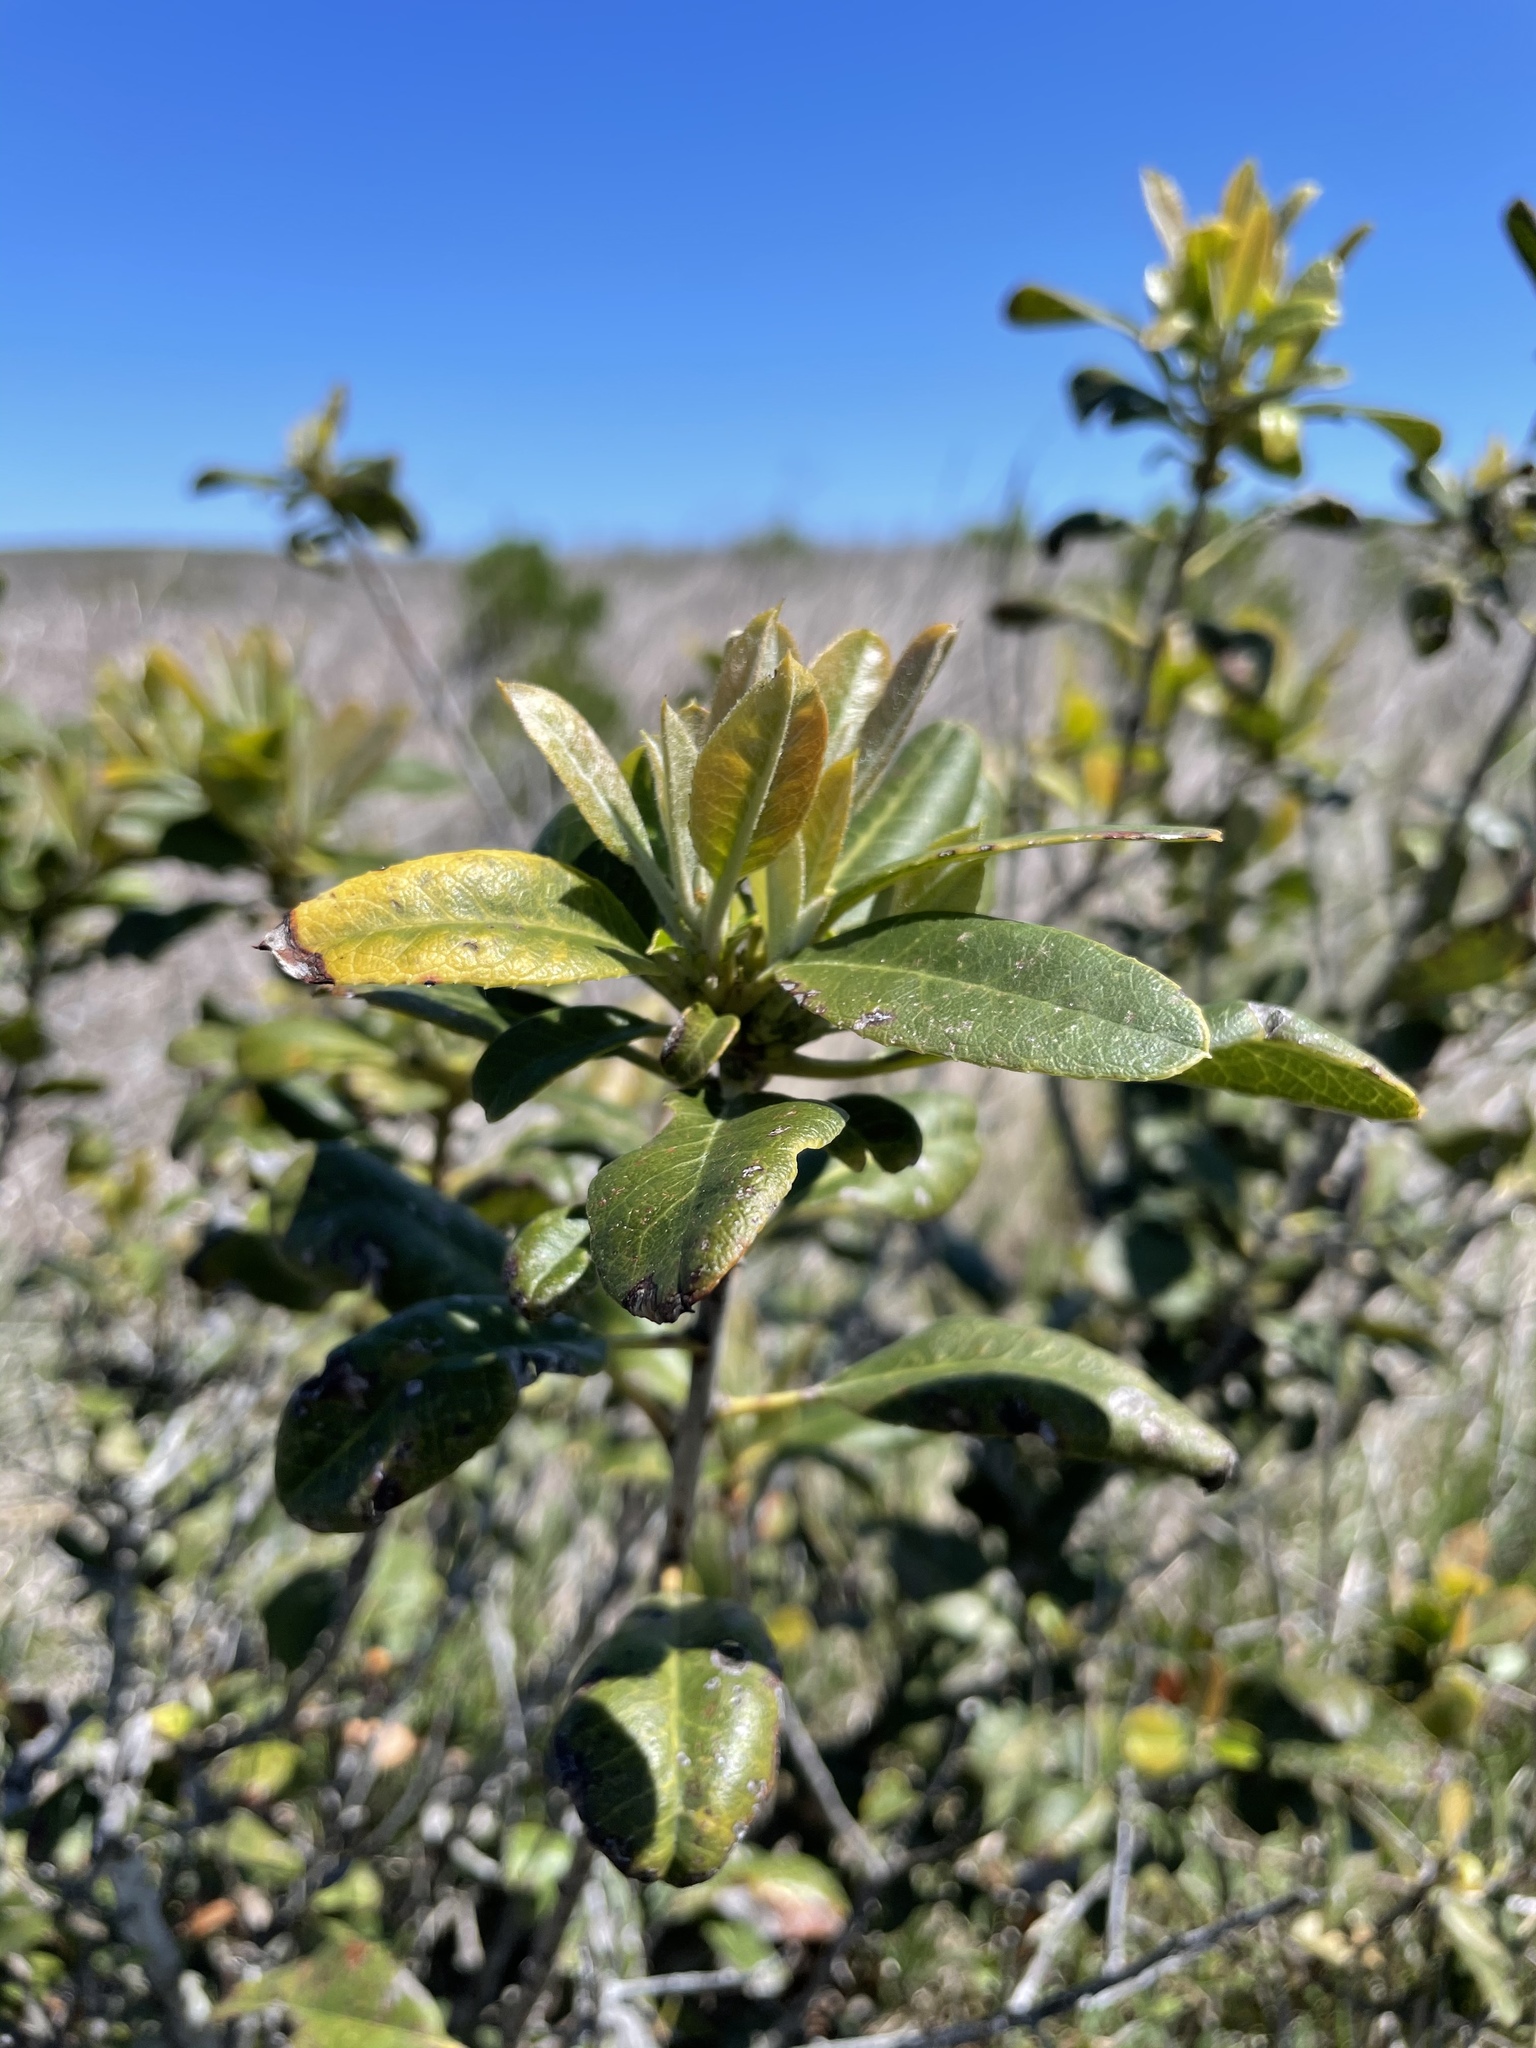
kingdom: Plantae
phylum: Tracheophyta
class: Magnoliopsida
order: Rosales
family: Rosaceae
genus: Heteromeles
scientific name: Heteromeles arbutifolia
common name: California-holly
